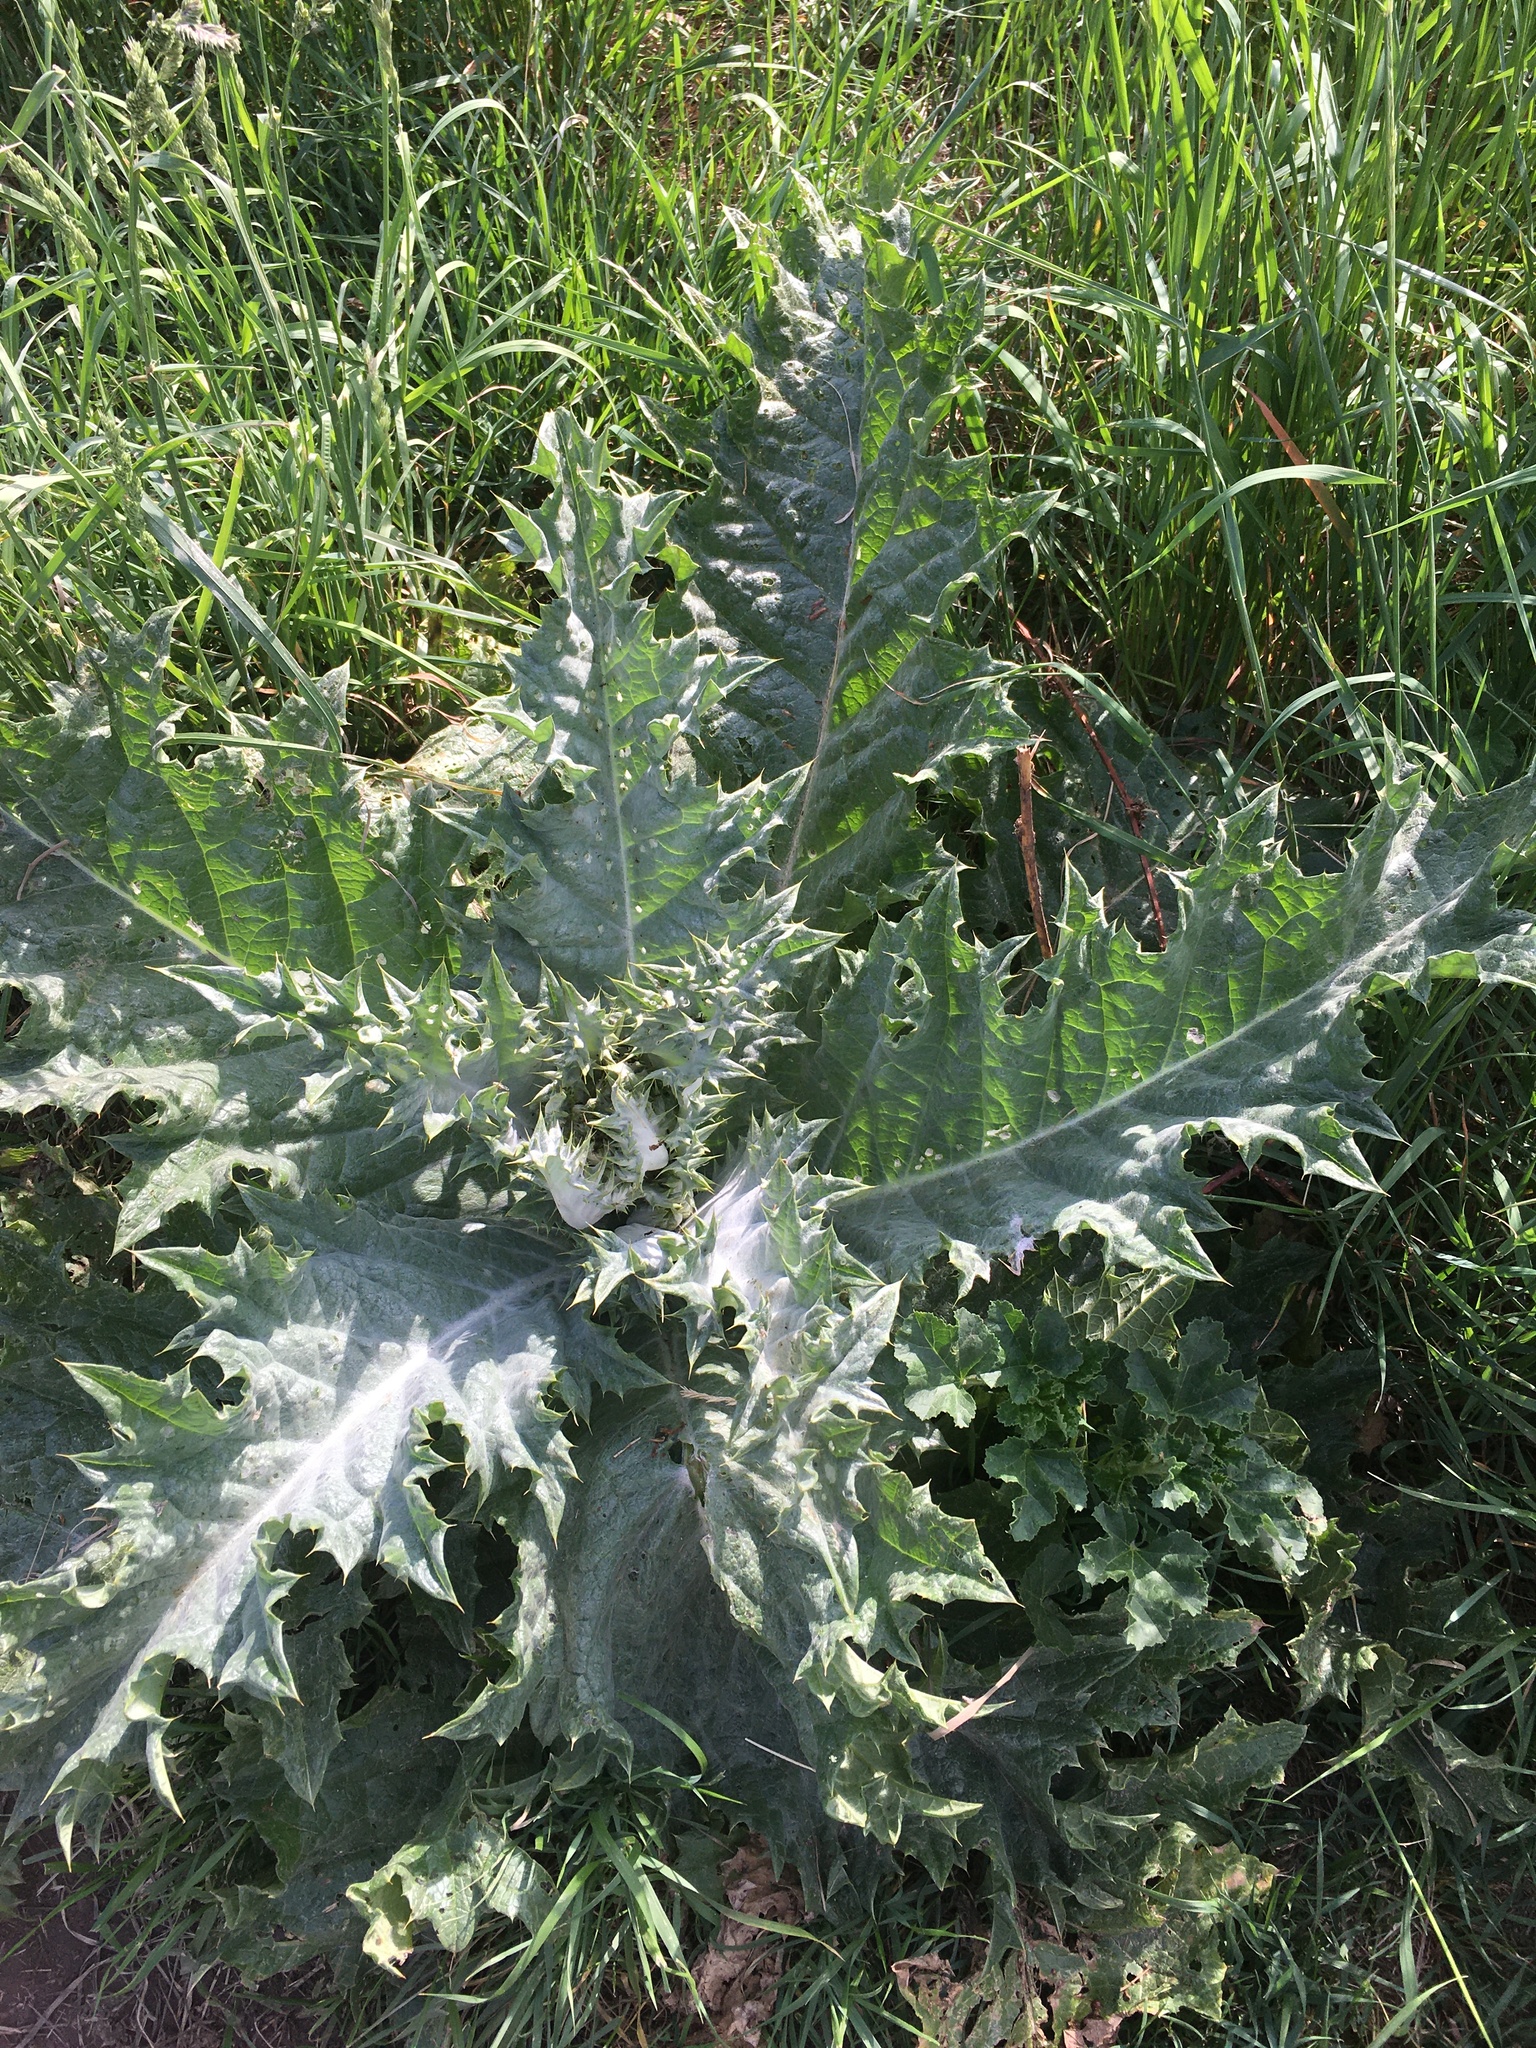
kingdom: Plantae
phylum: Tracheophyta
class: Magnoliopsida
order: Asterales
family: Asteraceae
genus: Onopordum
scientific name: Onopordum acanthium
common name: Scotch thistle
